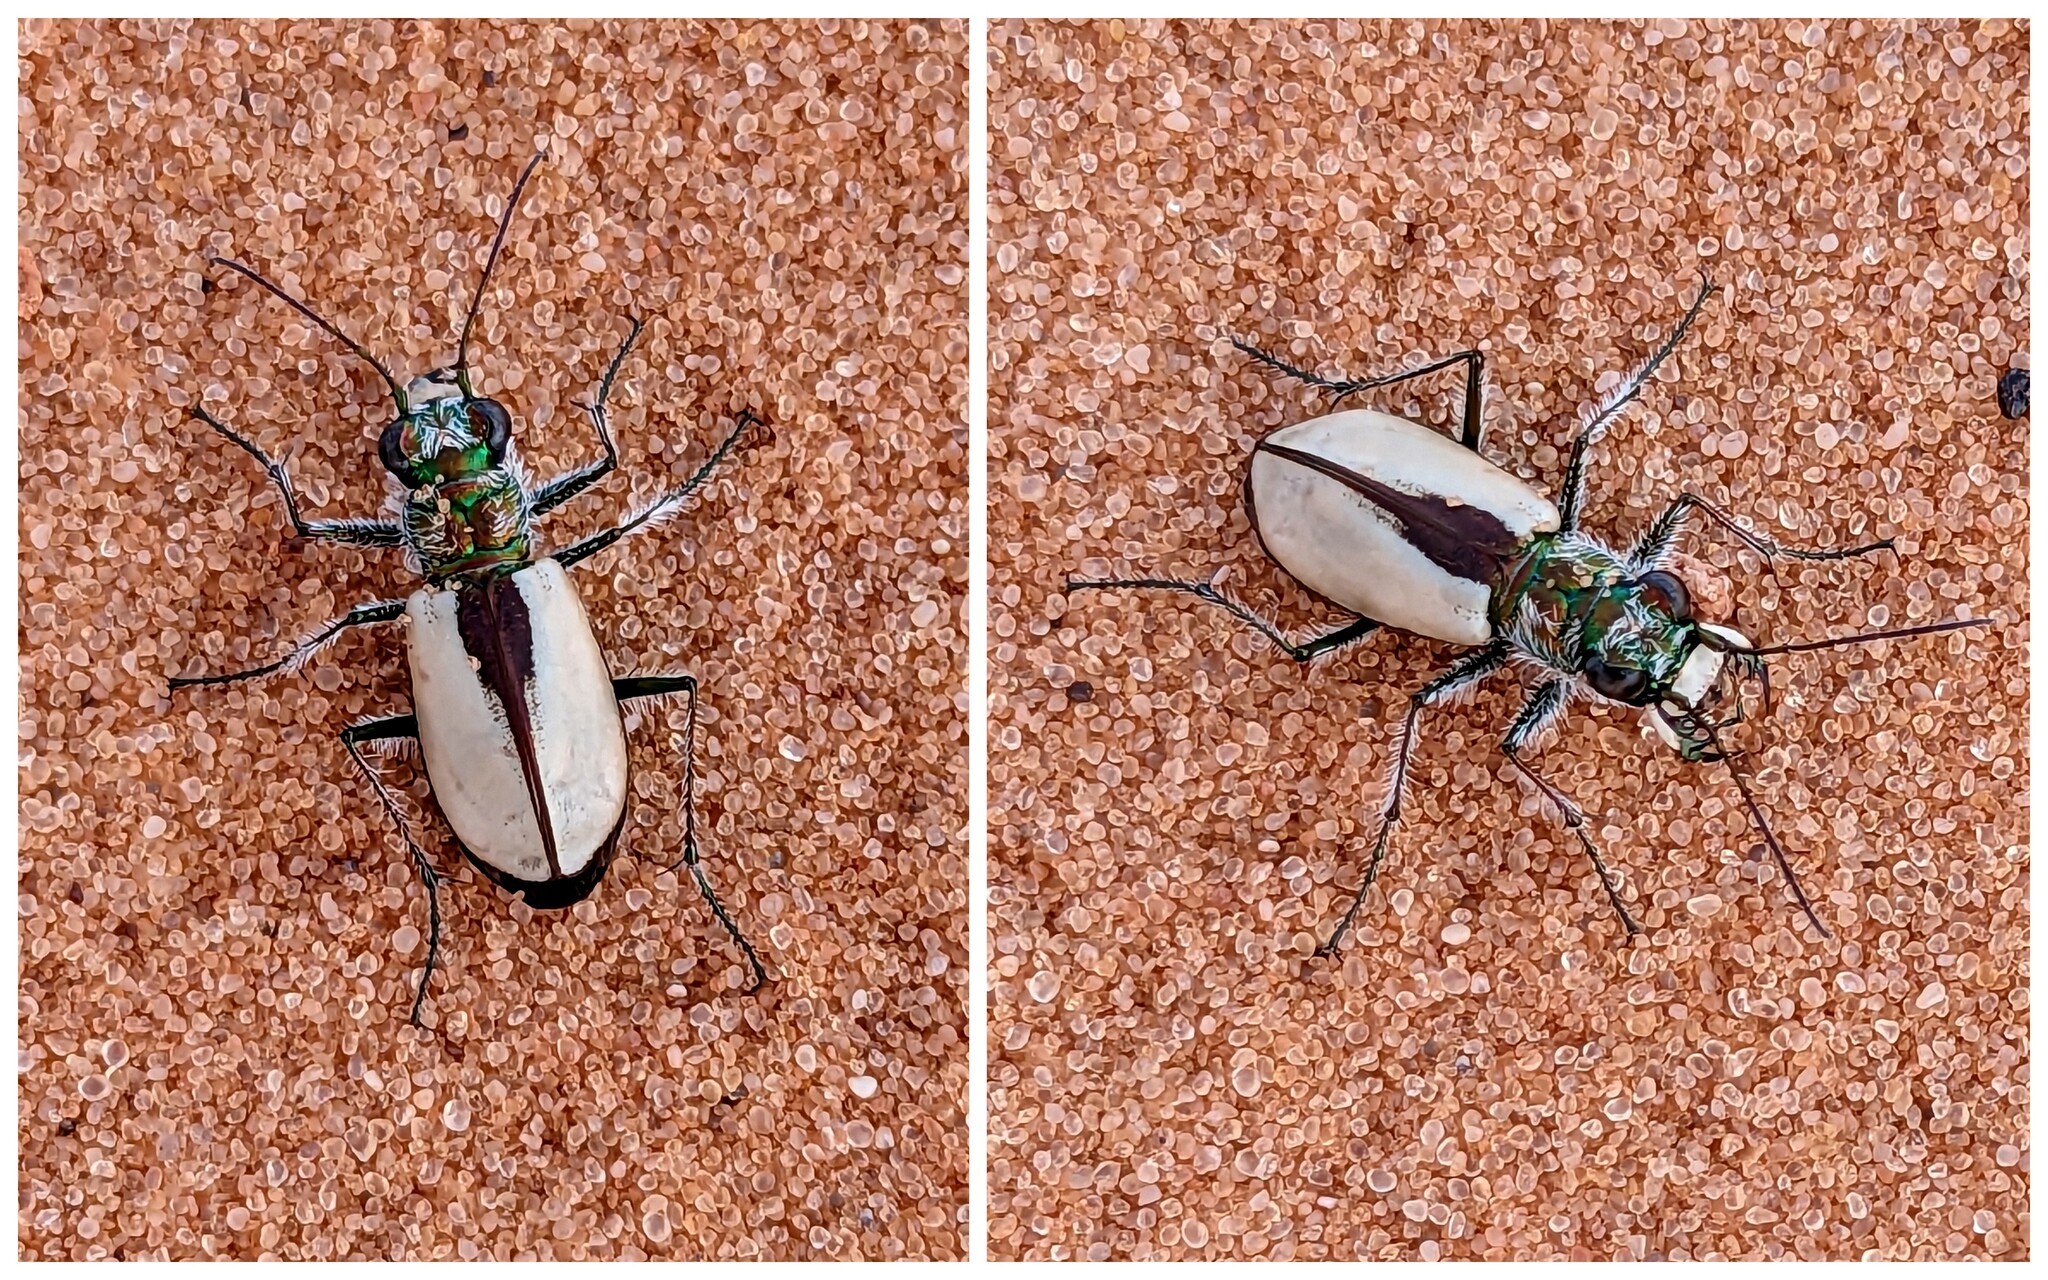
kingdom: Animalia
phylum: Arthropoda
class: Insecta
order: Coleoptera
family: Carabidae
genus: Cicindela
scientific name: Cicindela albissima
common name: Coral pink sand dunes tiger beetle
